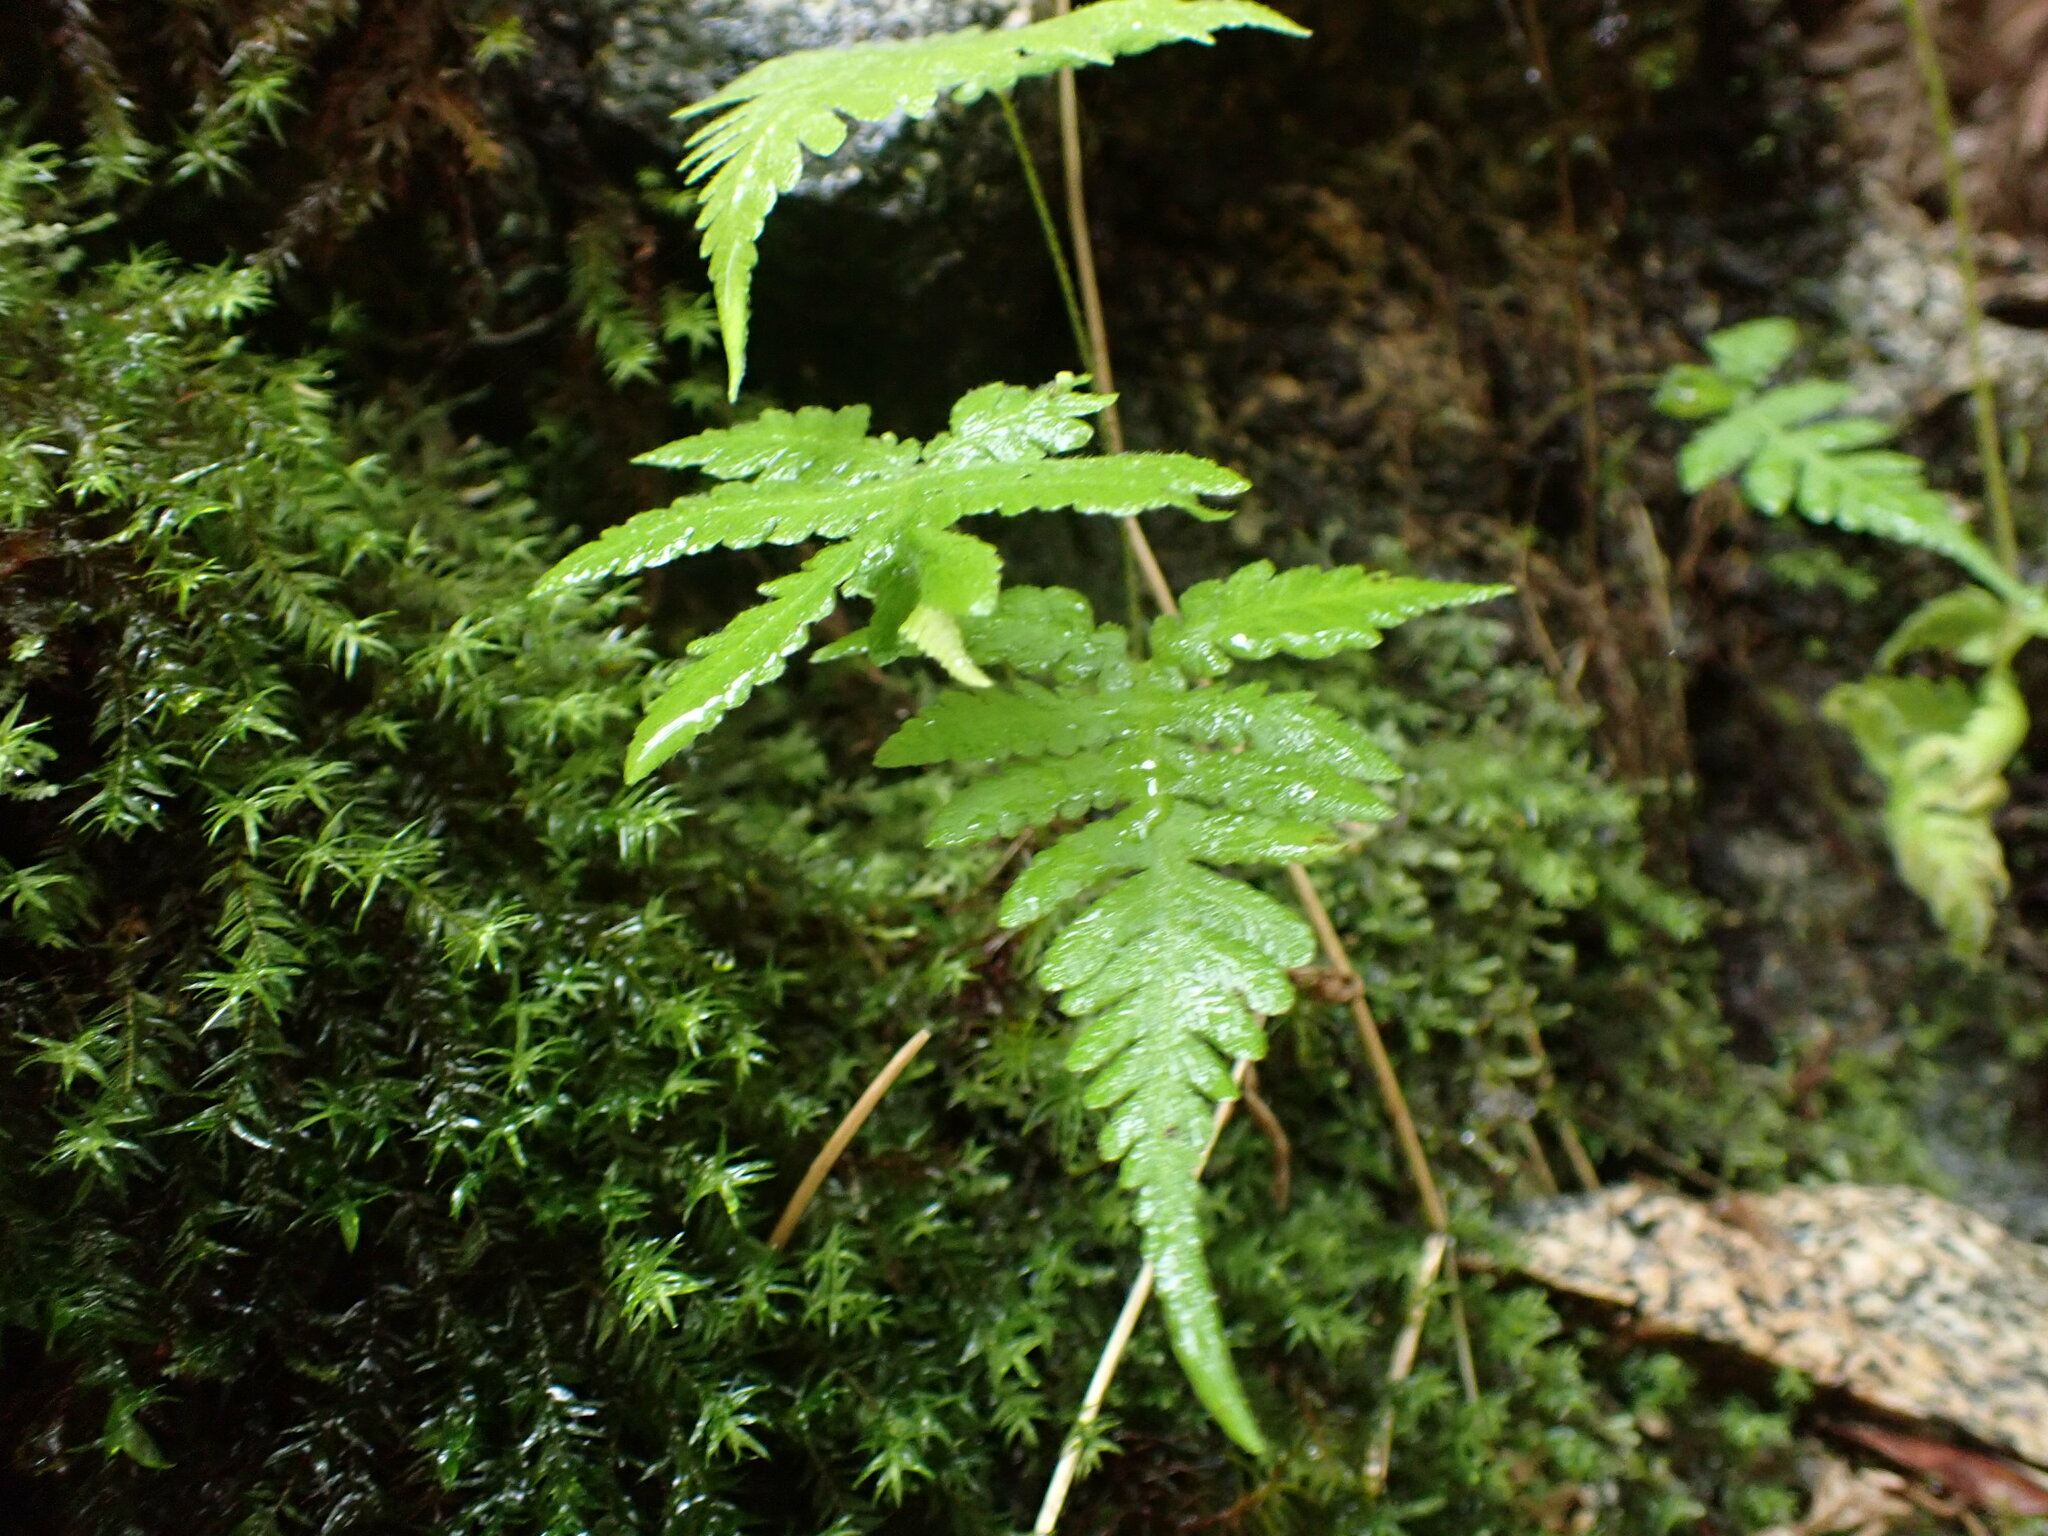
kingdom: Plantae
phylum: Tracheophyta
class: Polypodiopsida
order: Polypodiales
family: Thelypteridaceae
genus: Phegopteris
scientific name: Phegopteris connectilis
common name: Beech fern
